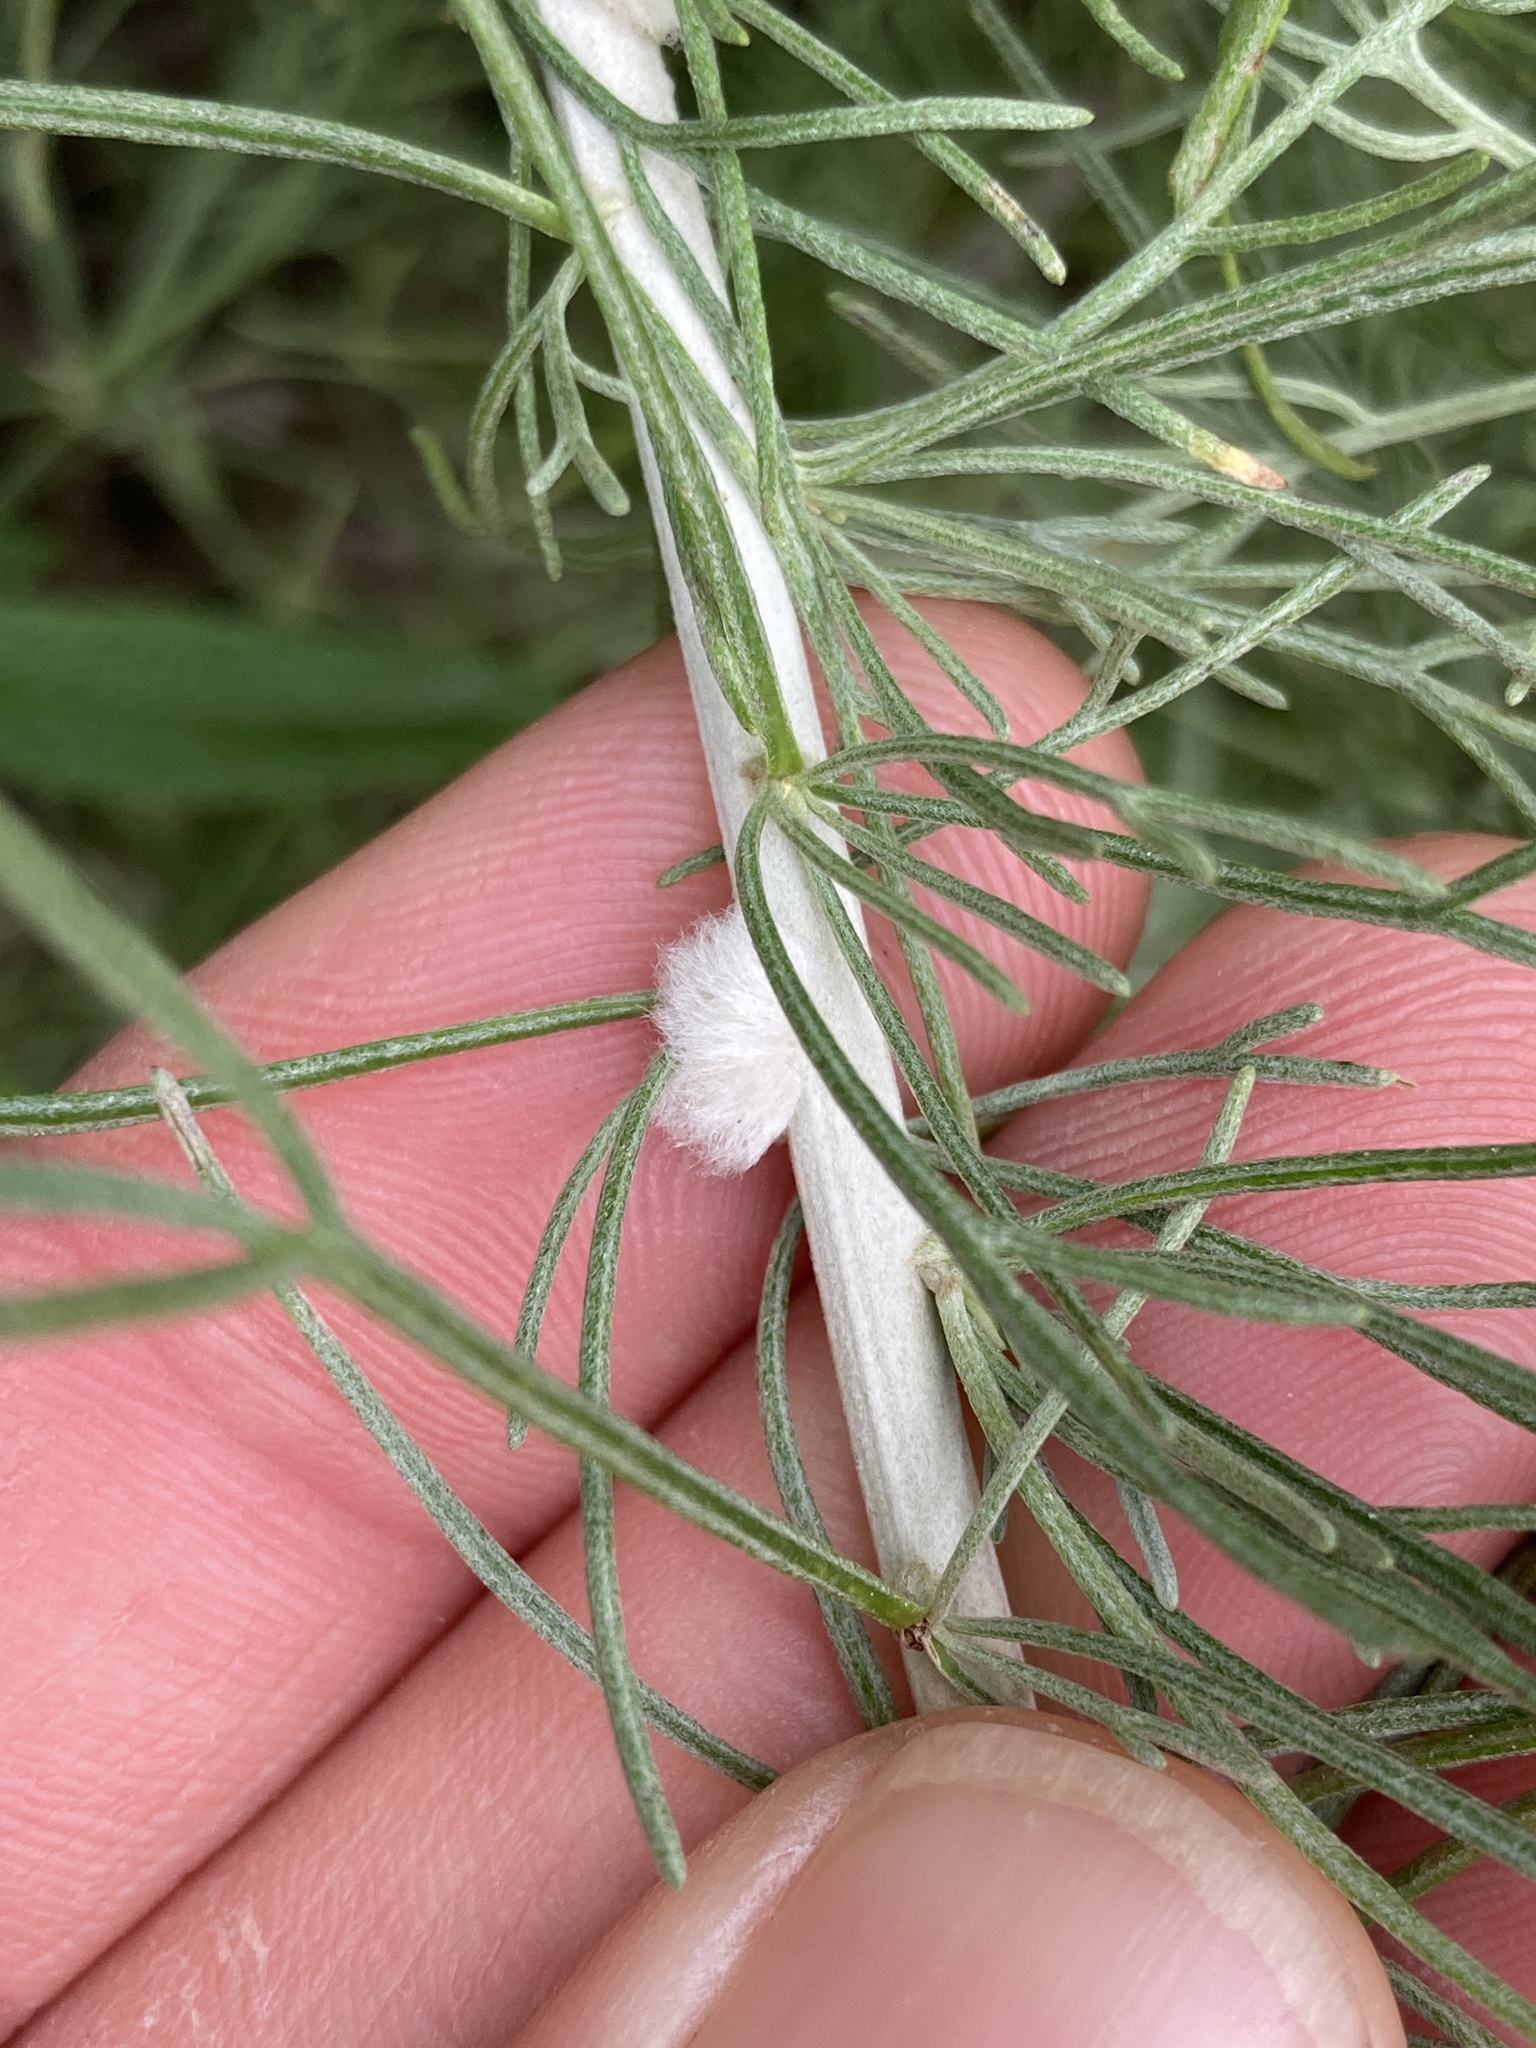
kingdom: Animalia
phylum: Arthropoda
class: Insecta
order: Diptera
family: Cecidomyiidae
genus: Rhopalomyia
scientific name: Rhopalomyia floccosa
